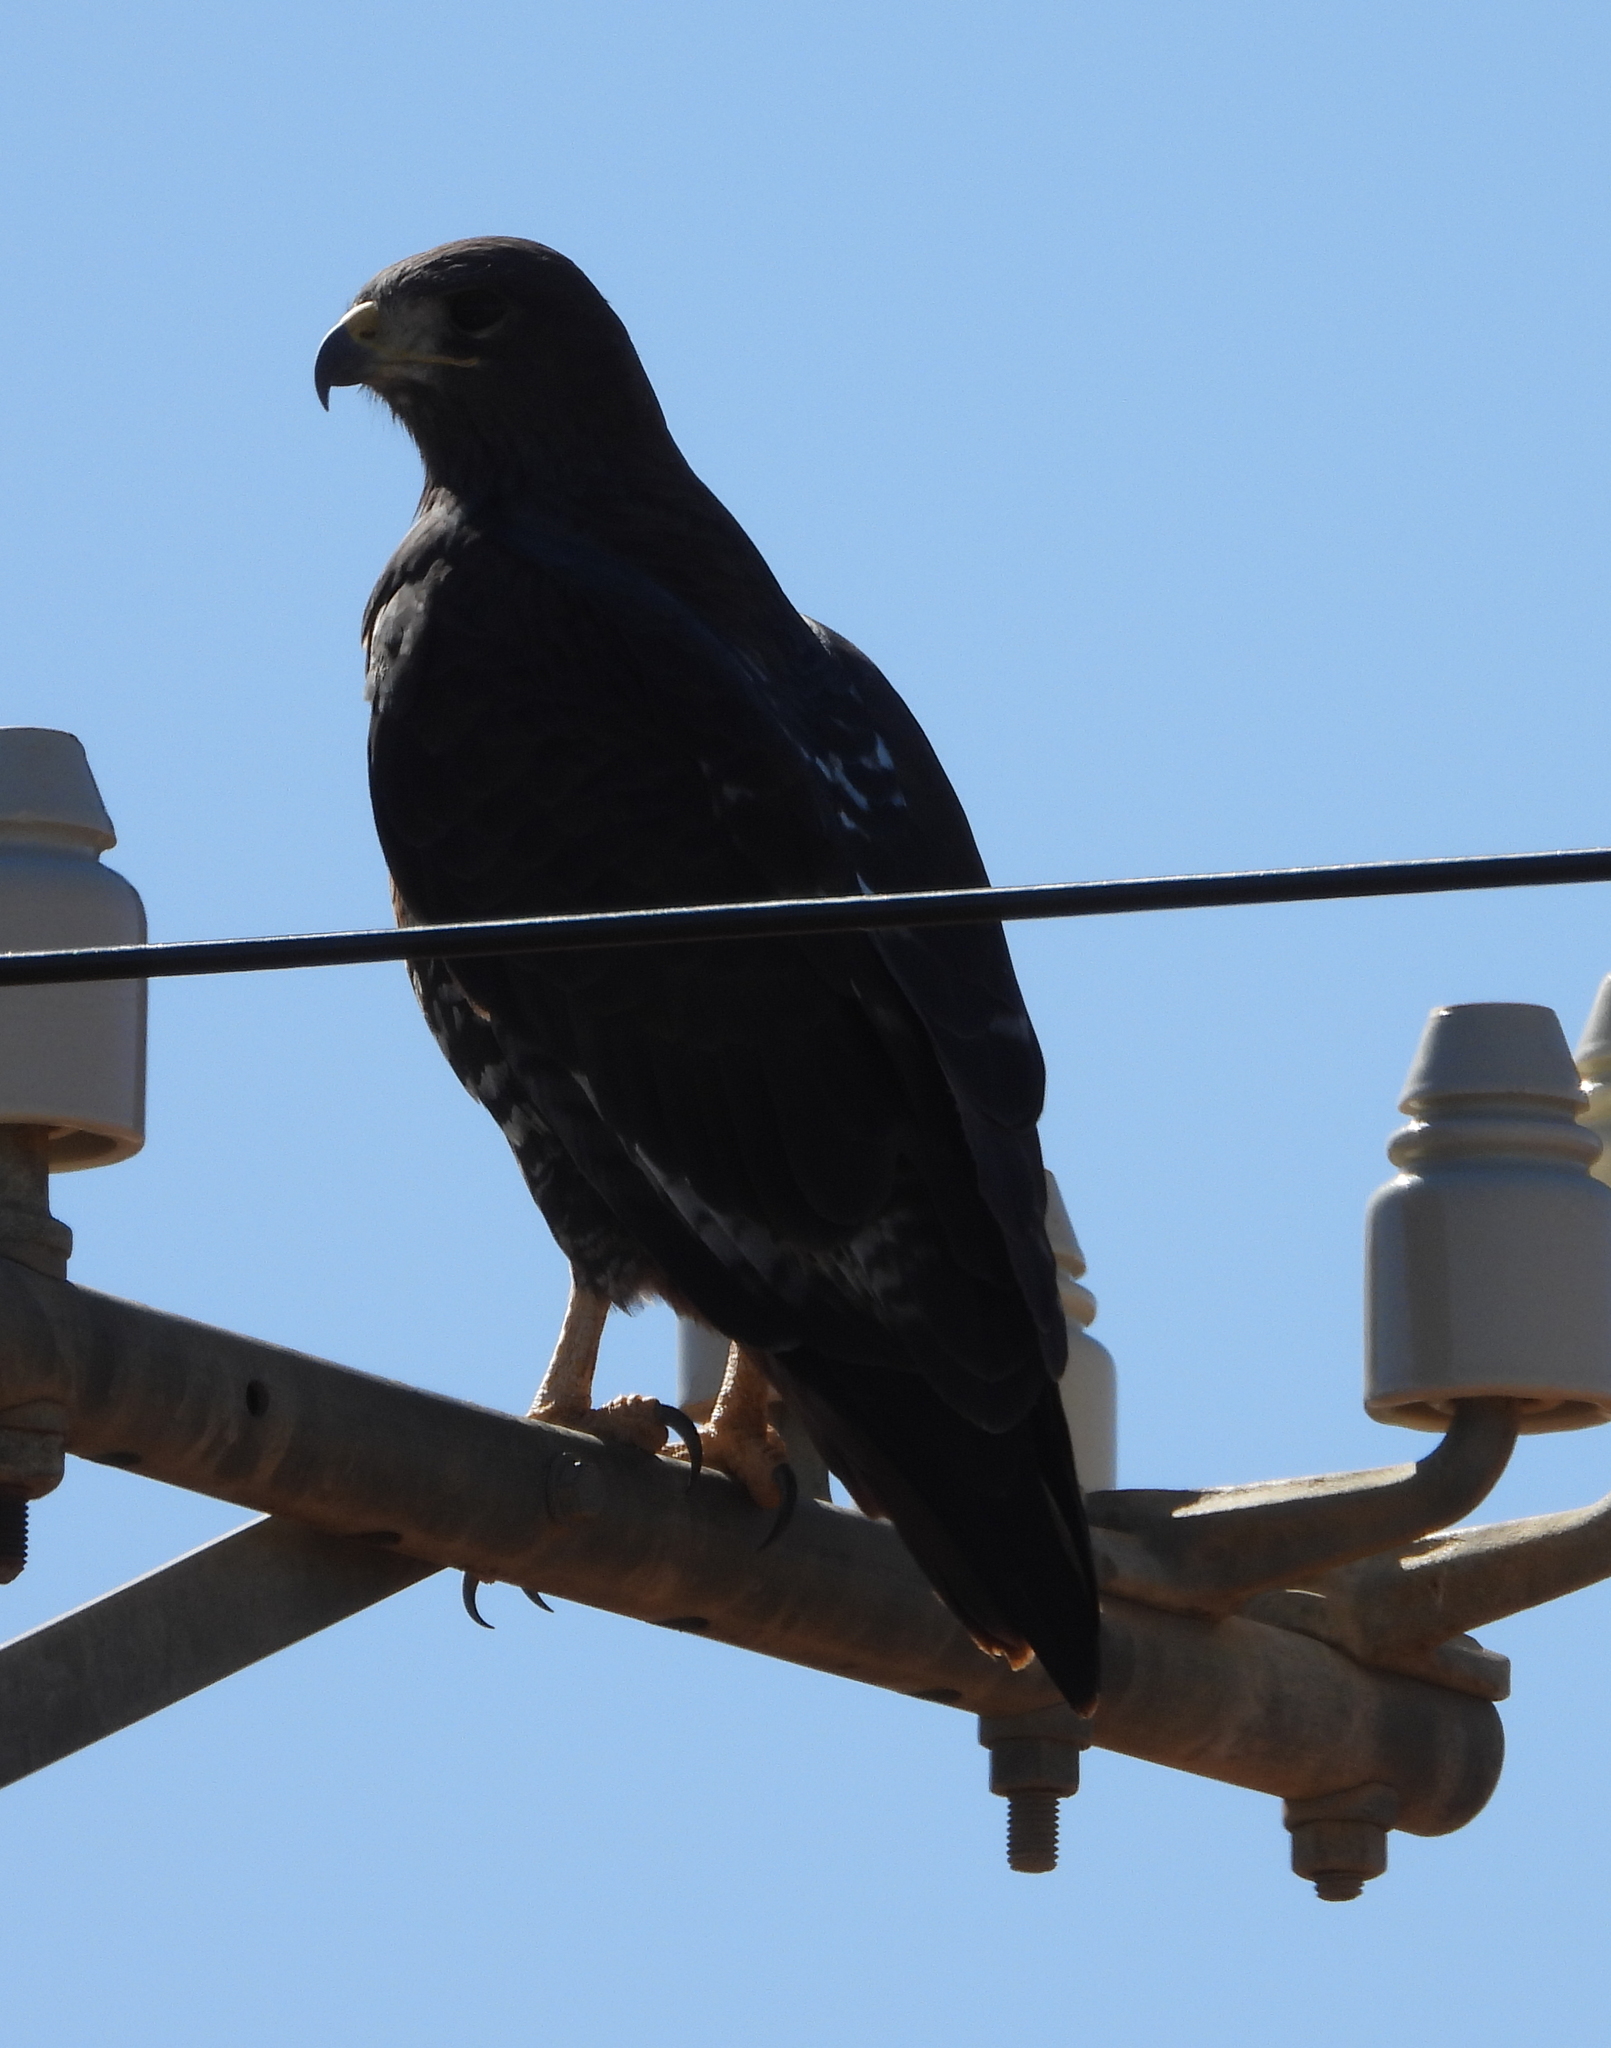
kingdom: Animalia
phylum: Chordata
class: Aves
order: Accipitriformes
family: Accipitridae
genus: Buteo
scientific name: Buteo rufofuscus
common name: Jackal buzzard
